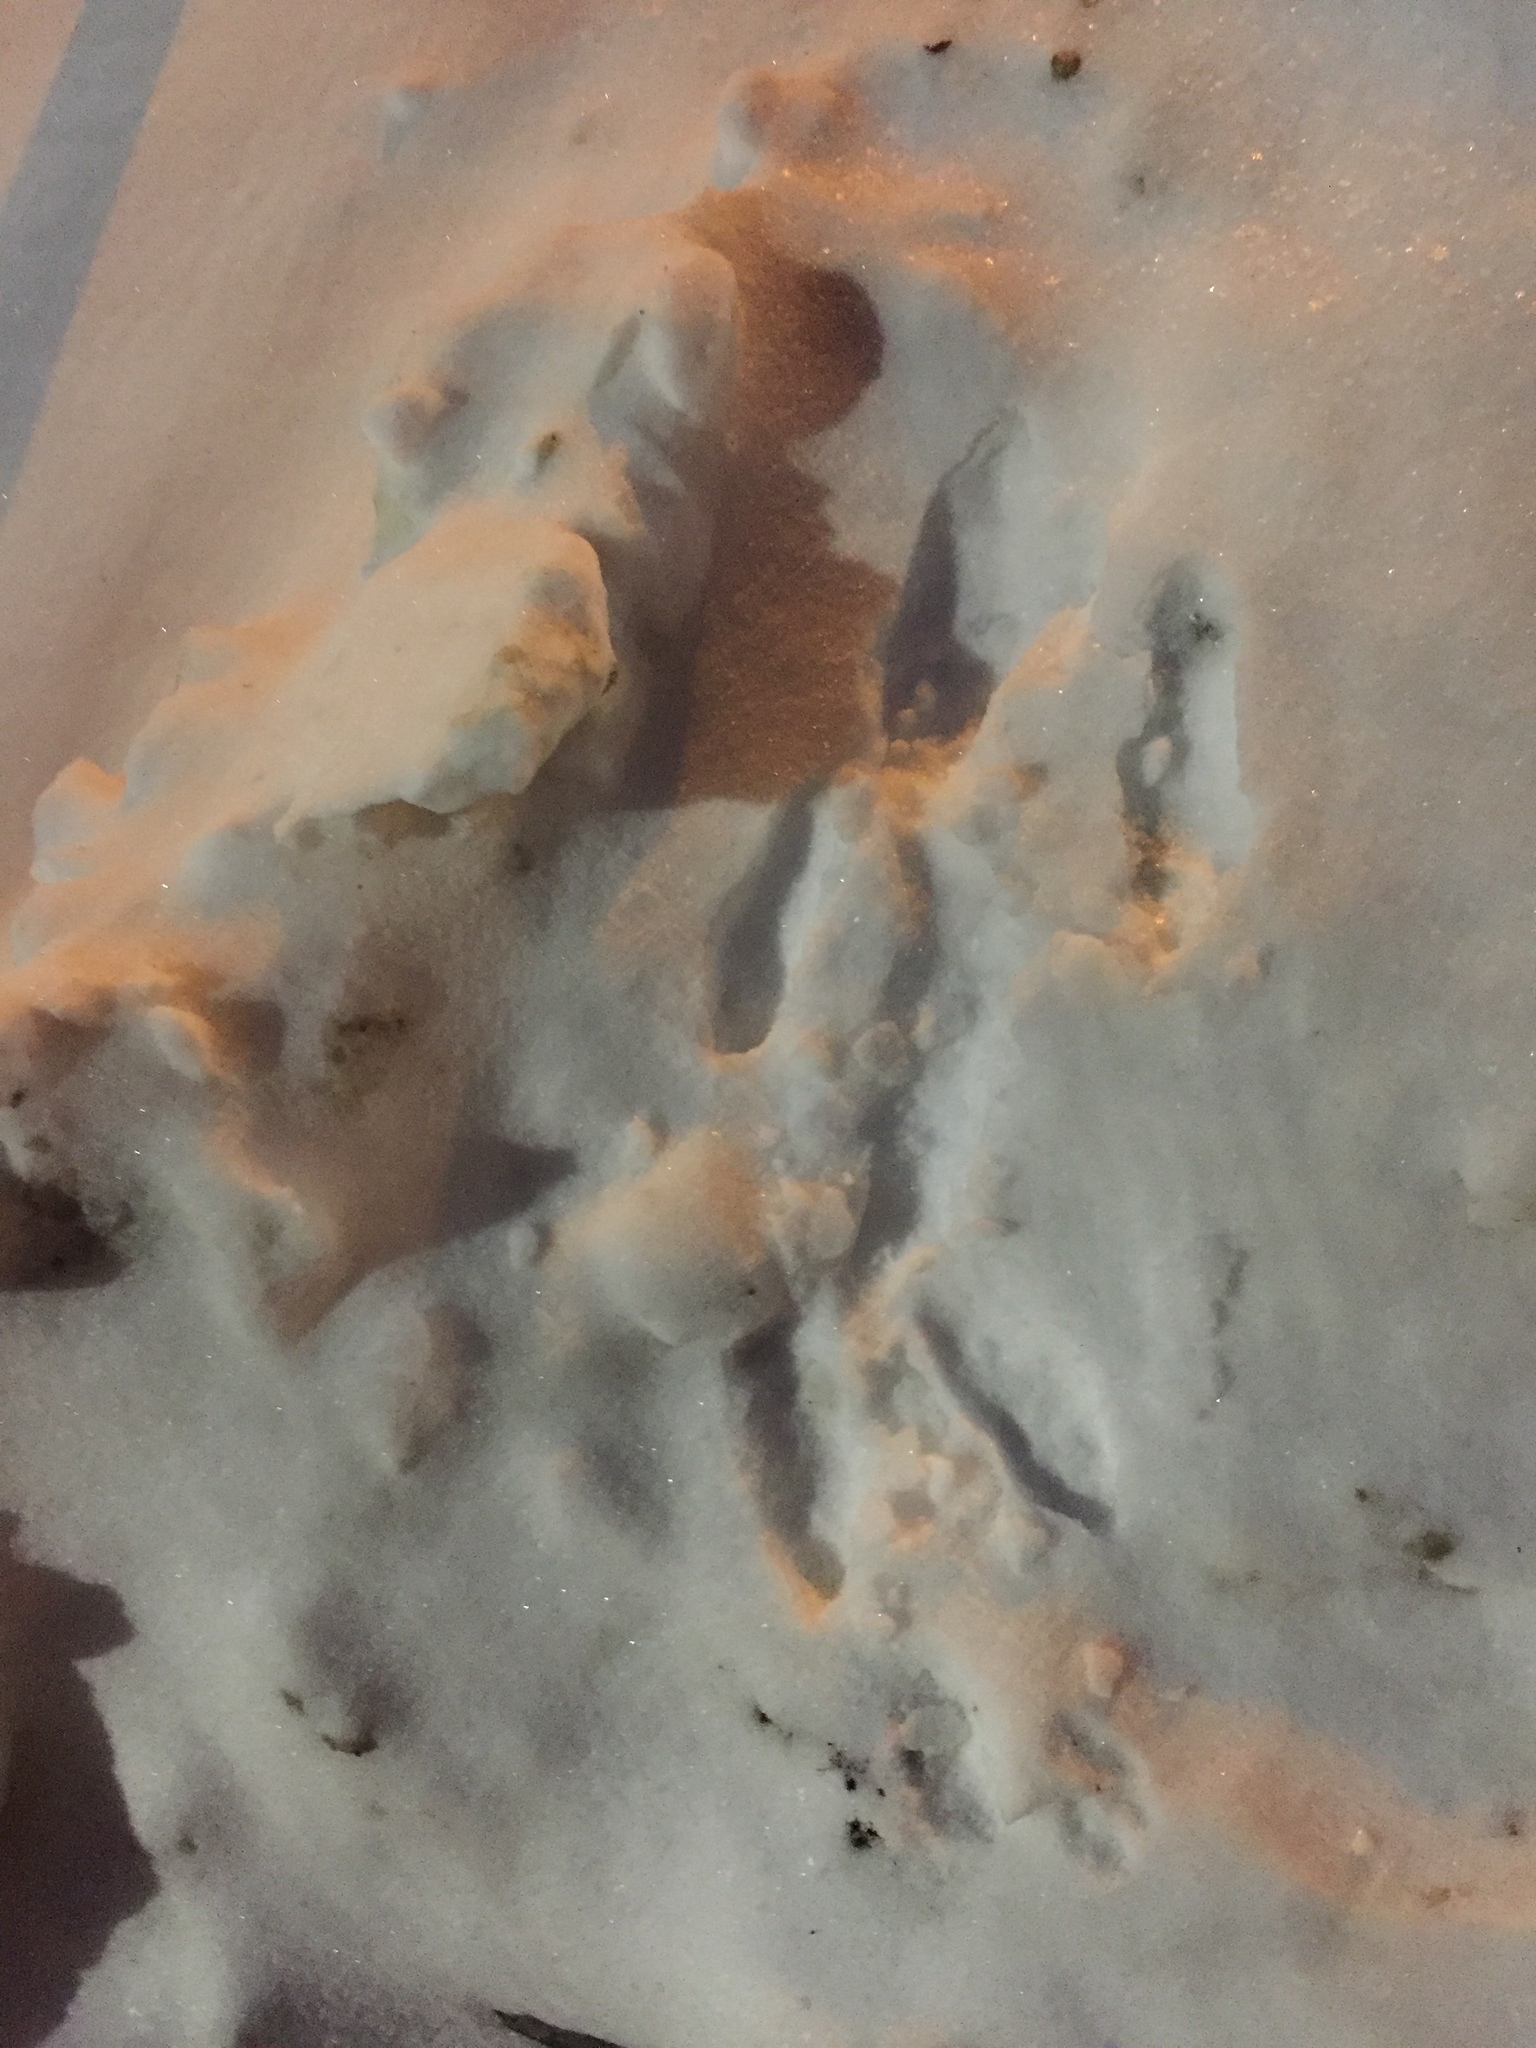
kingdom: Animalia
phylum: Chordata
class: Mammalia
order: Lagomorpha
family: Leporidae
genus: Sylvilagus
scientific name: Sylvilagus floridanus
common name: Eastern cottontail
